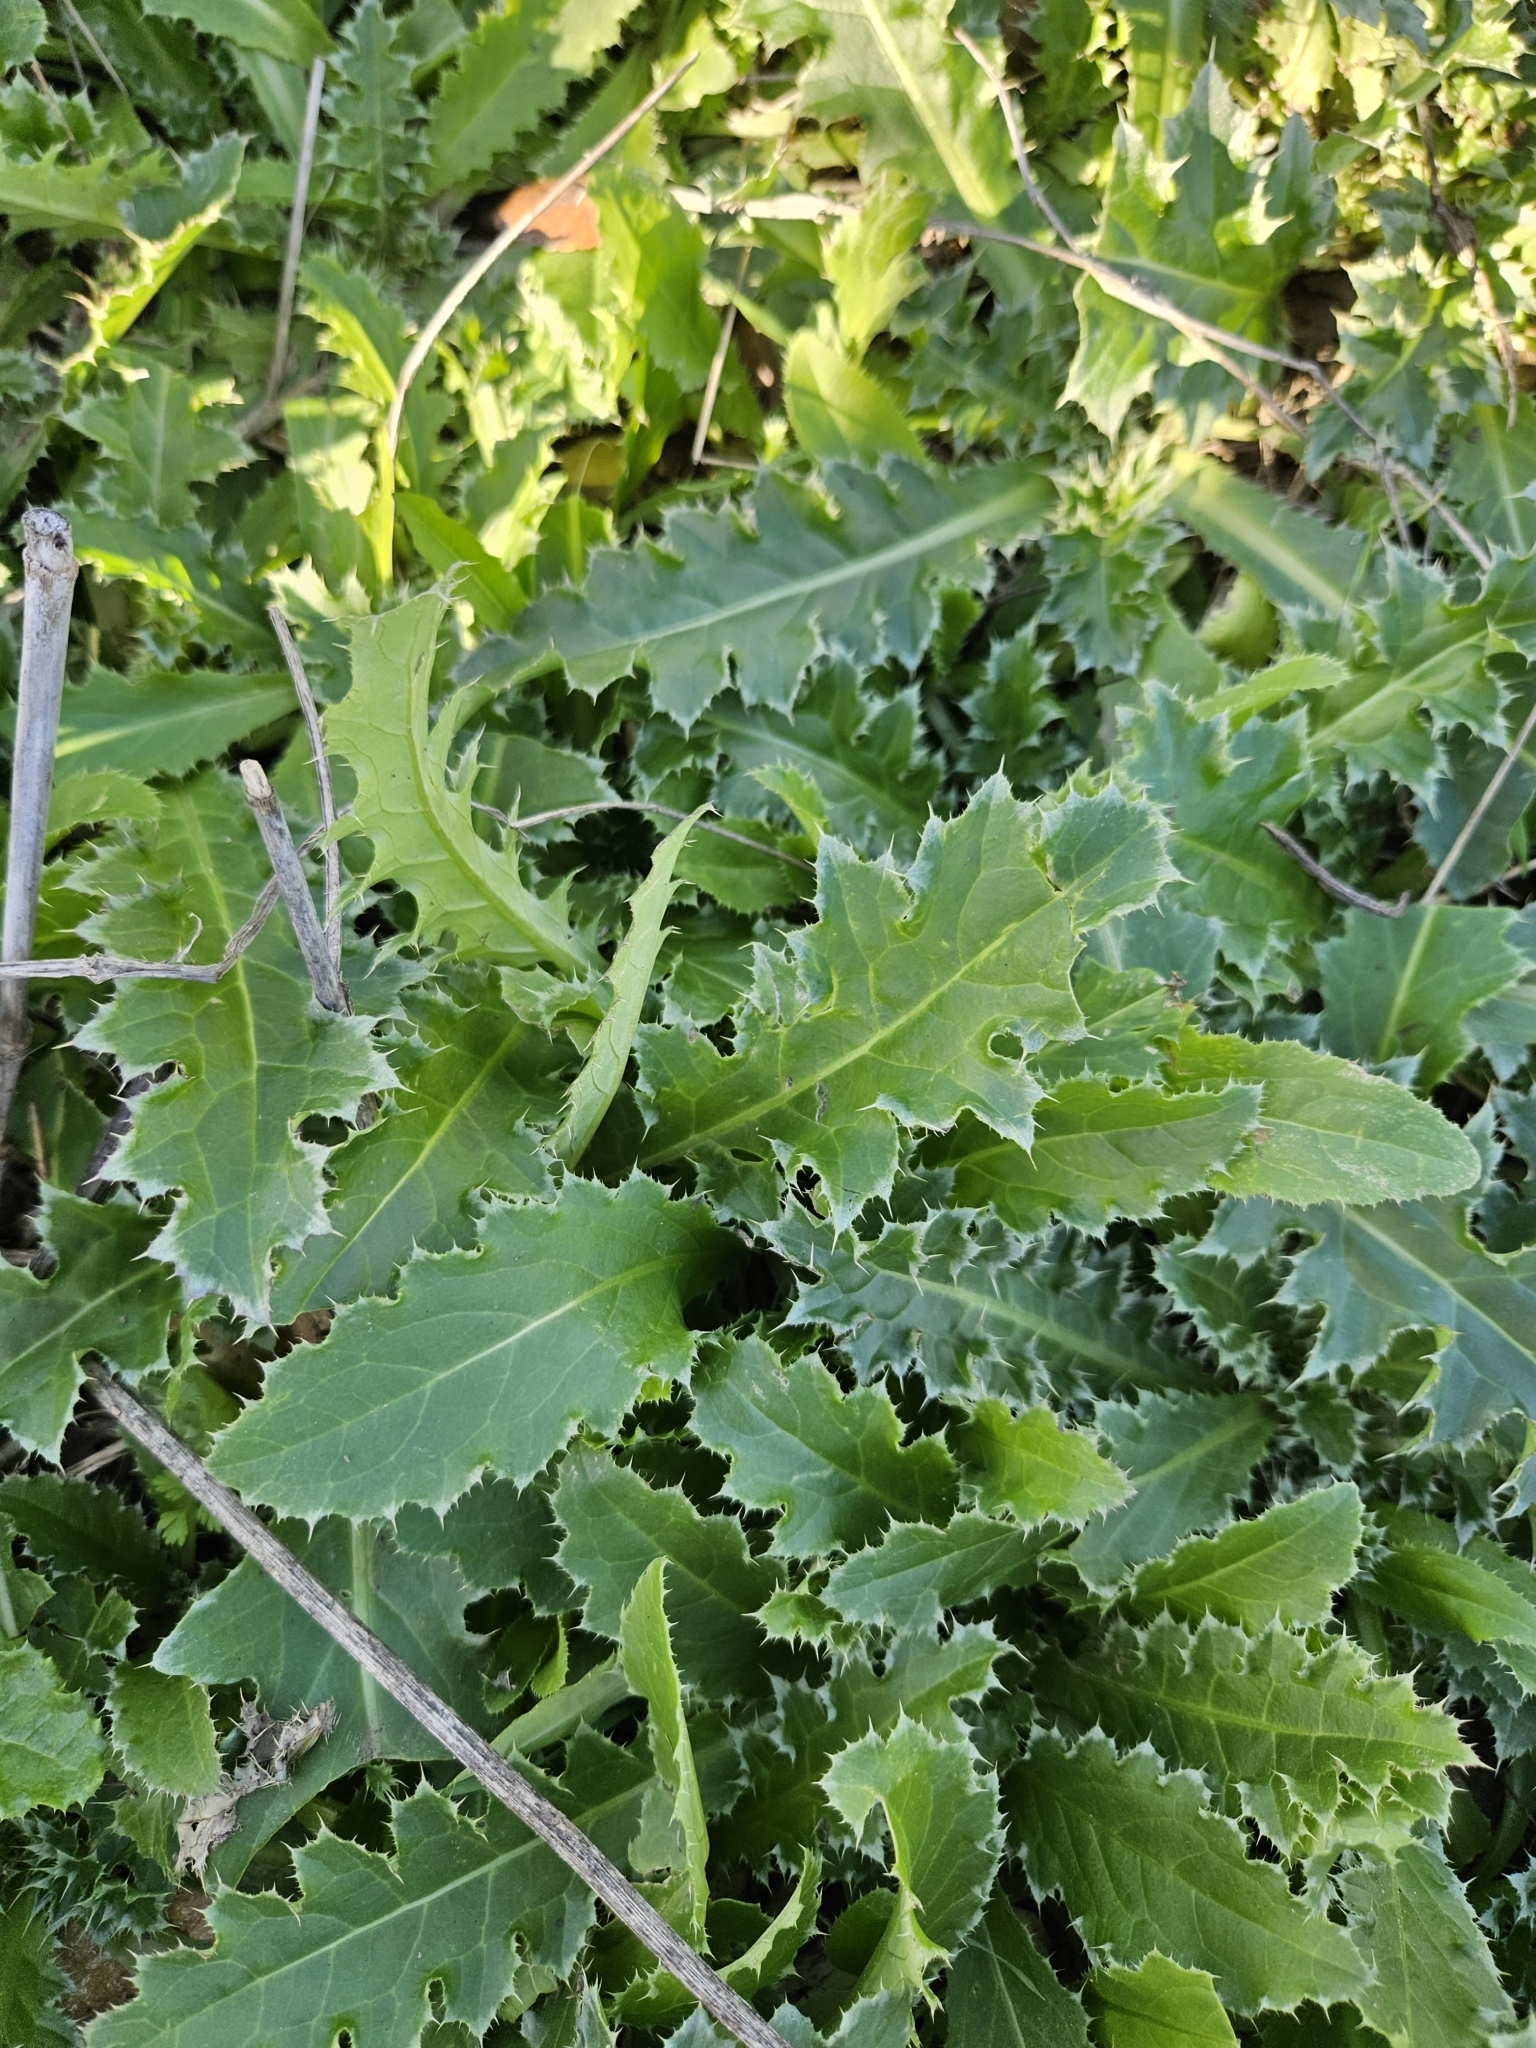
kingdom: Plantae
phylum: Tracheophyta
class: Magnoliopsida
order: Asterales
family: Asteraceae
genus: Carduus
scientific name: Carduus nutans
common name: Musk thistle
